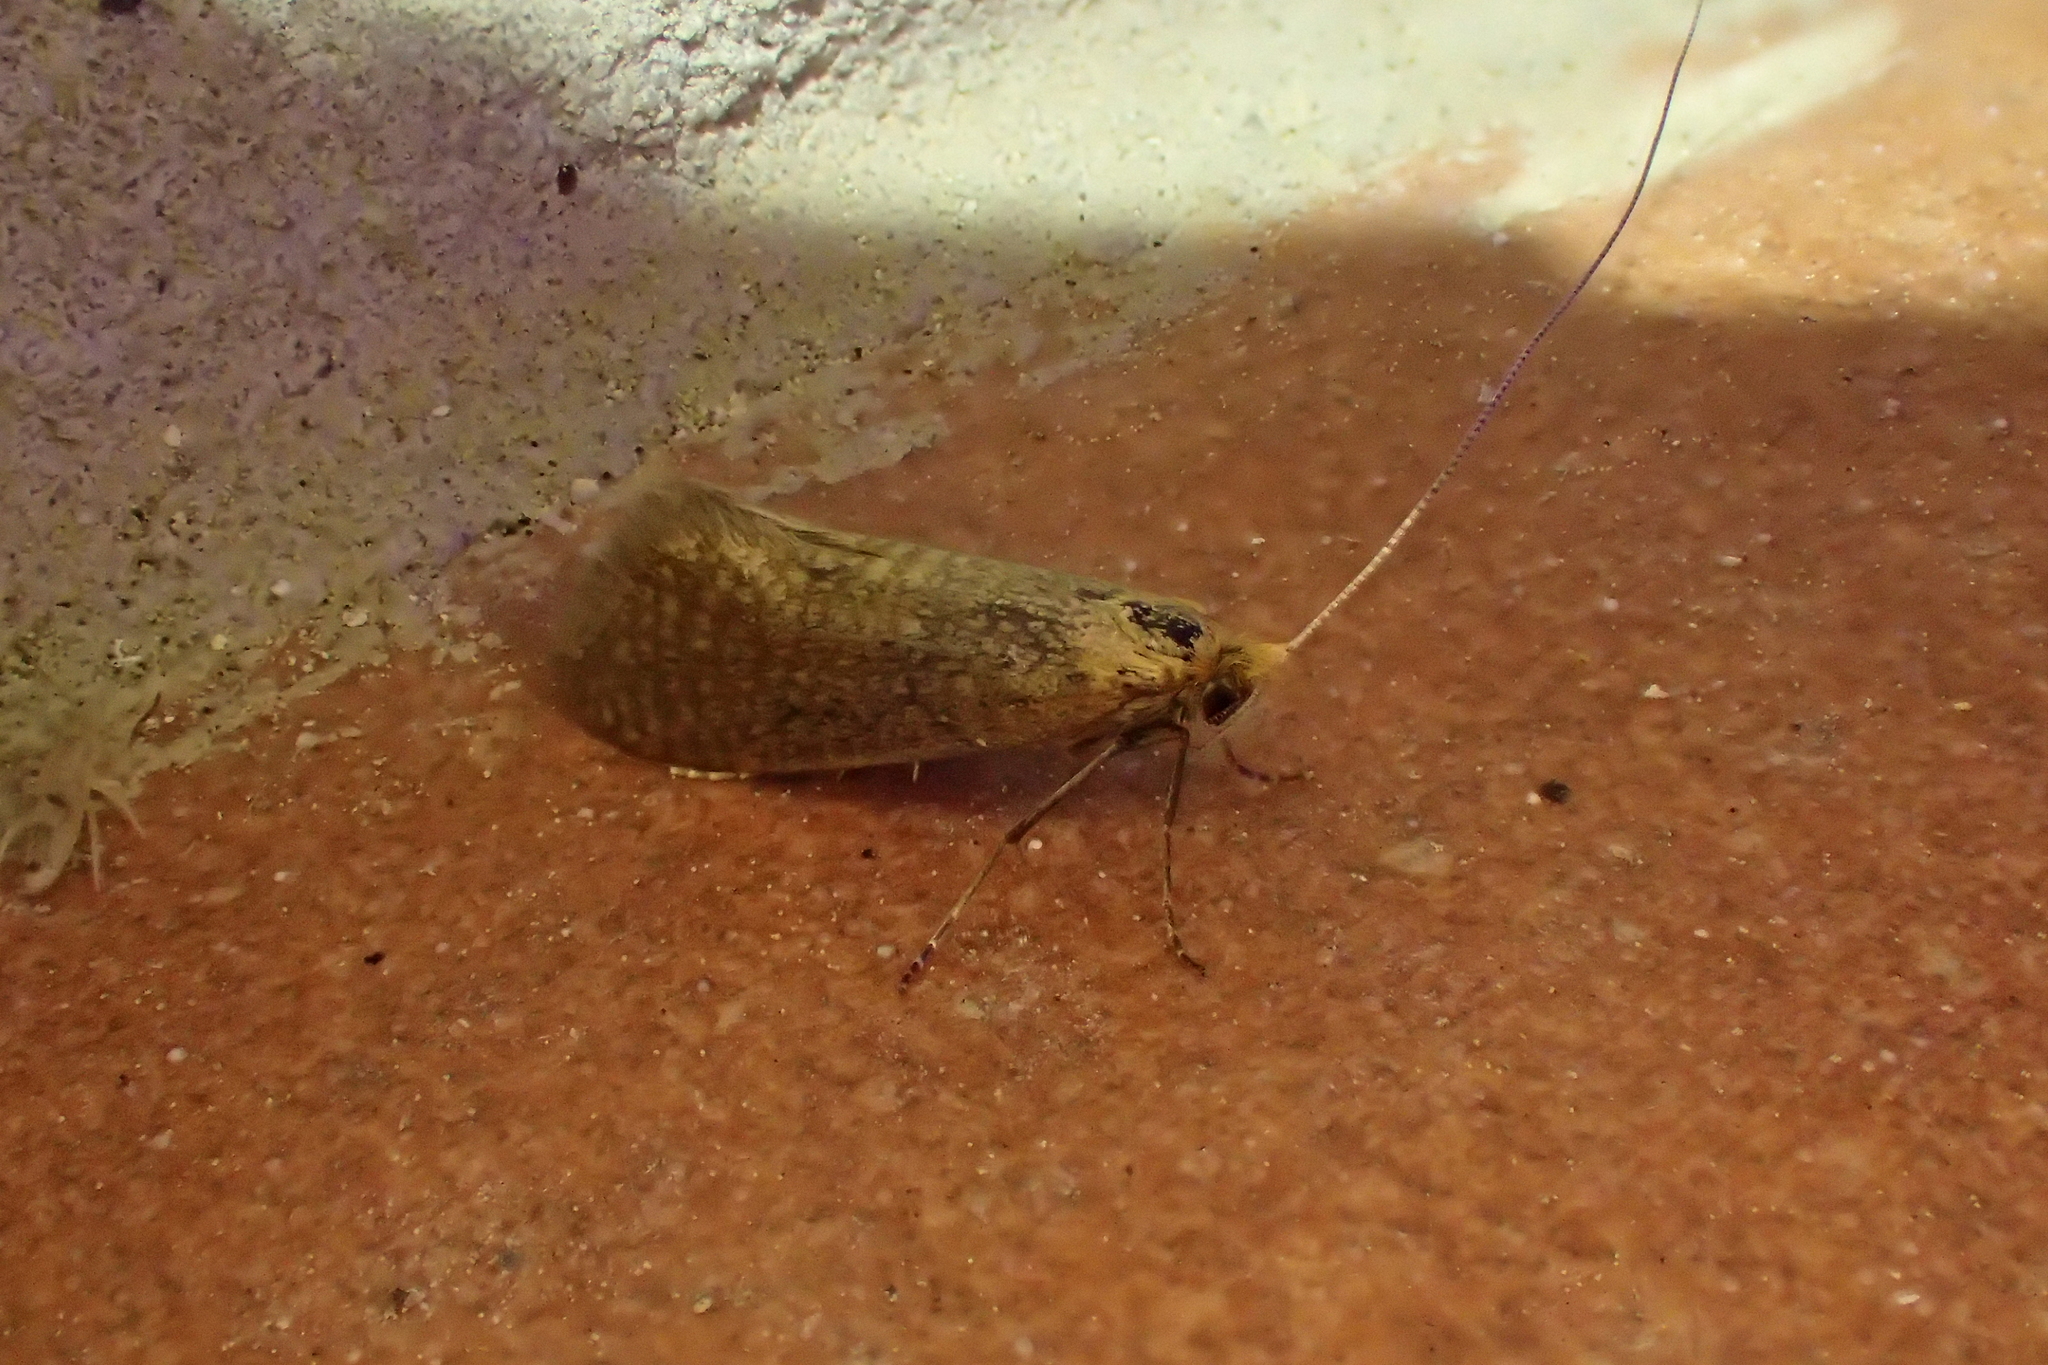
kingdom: Animalia
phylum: Arthropoda
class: Insecta
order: Lepidoptera
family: Adelidae
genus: Nematopogon
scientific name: Nematopogon adansoniella
